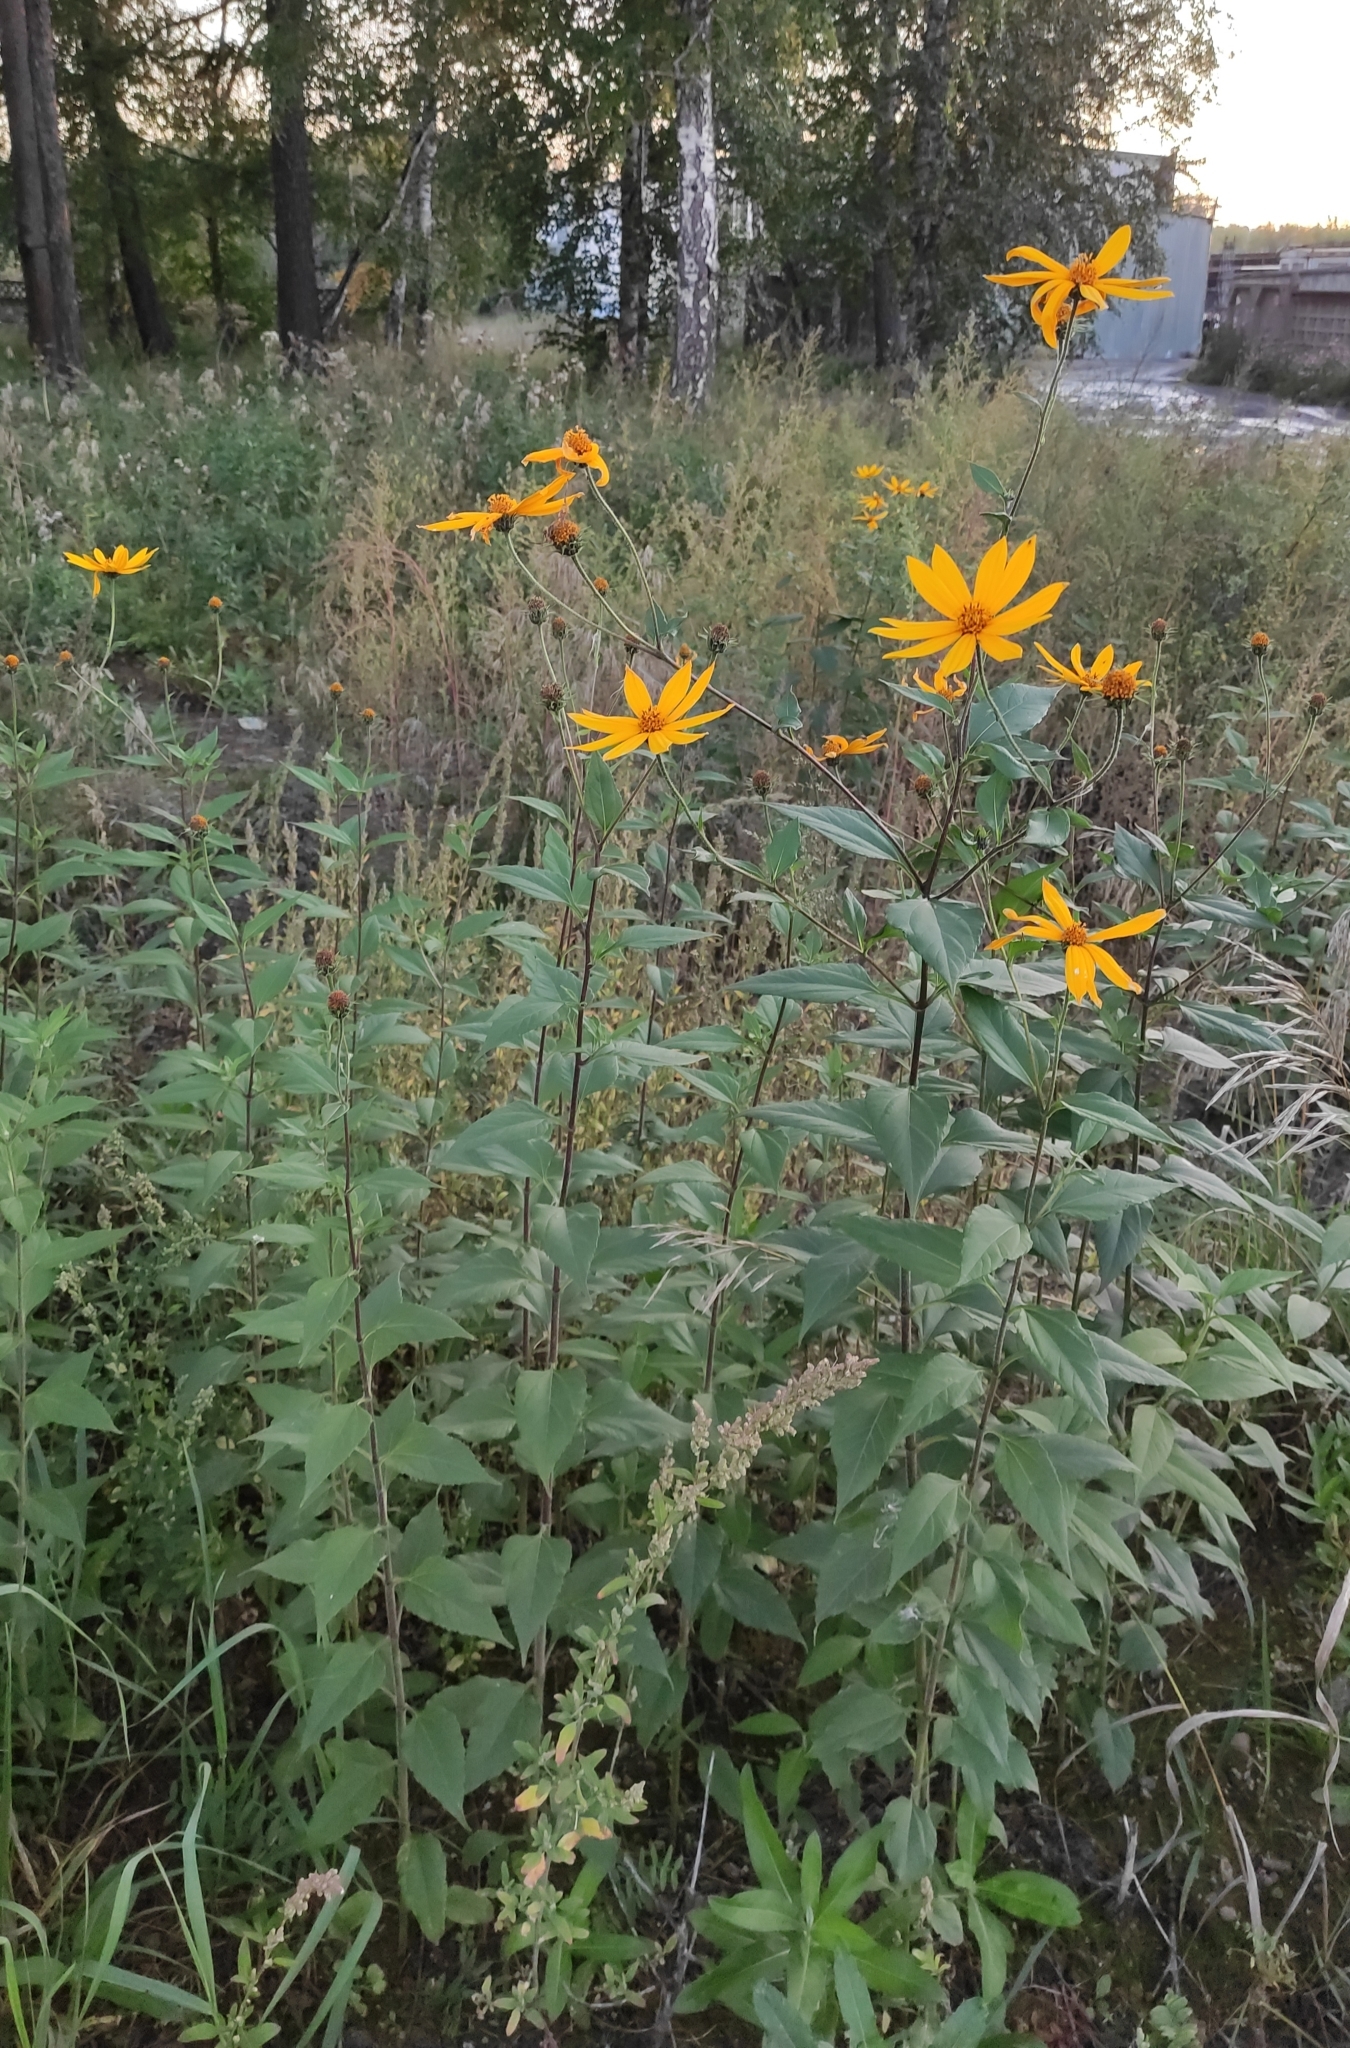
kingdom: Plantae
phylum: Tracheophyta
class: Magnoliopsida
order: Asterales
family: Asteraceae
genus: Helianthus
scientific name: Helianthus tuberosus
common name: Jerusalem artichoke
